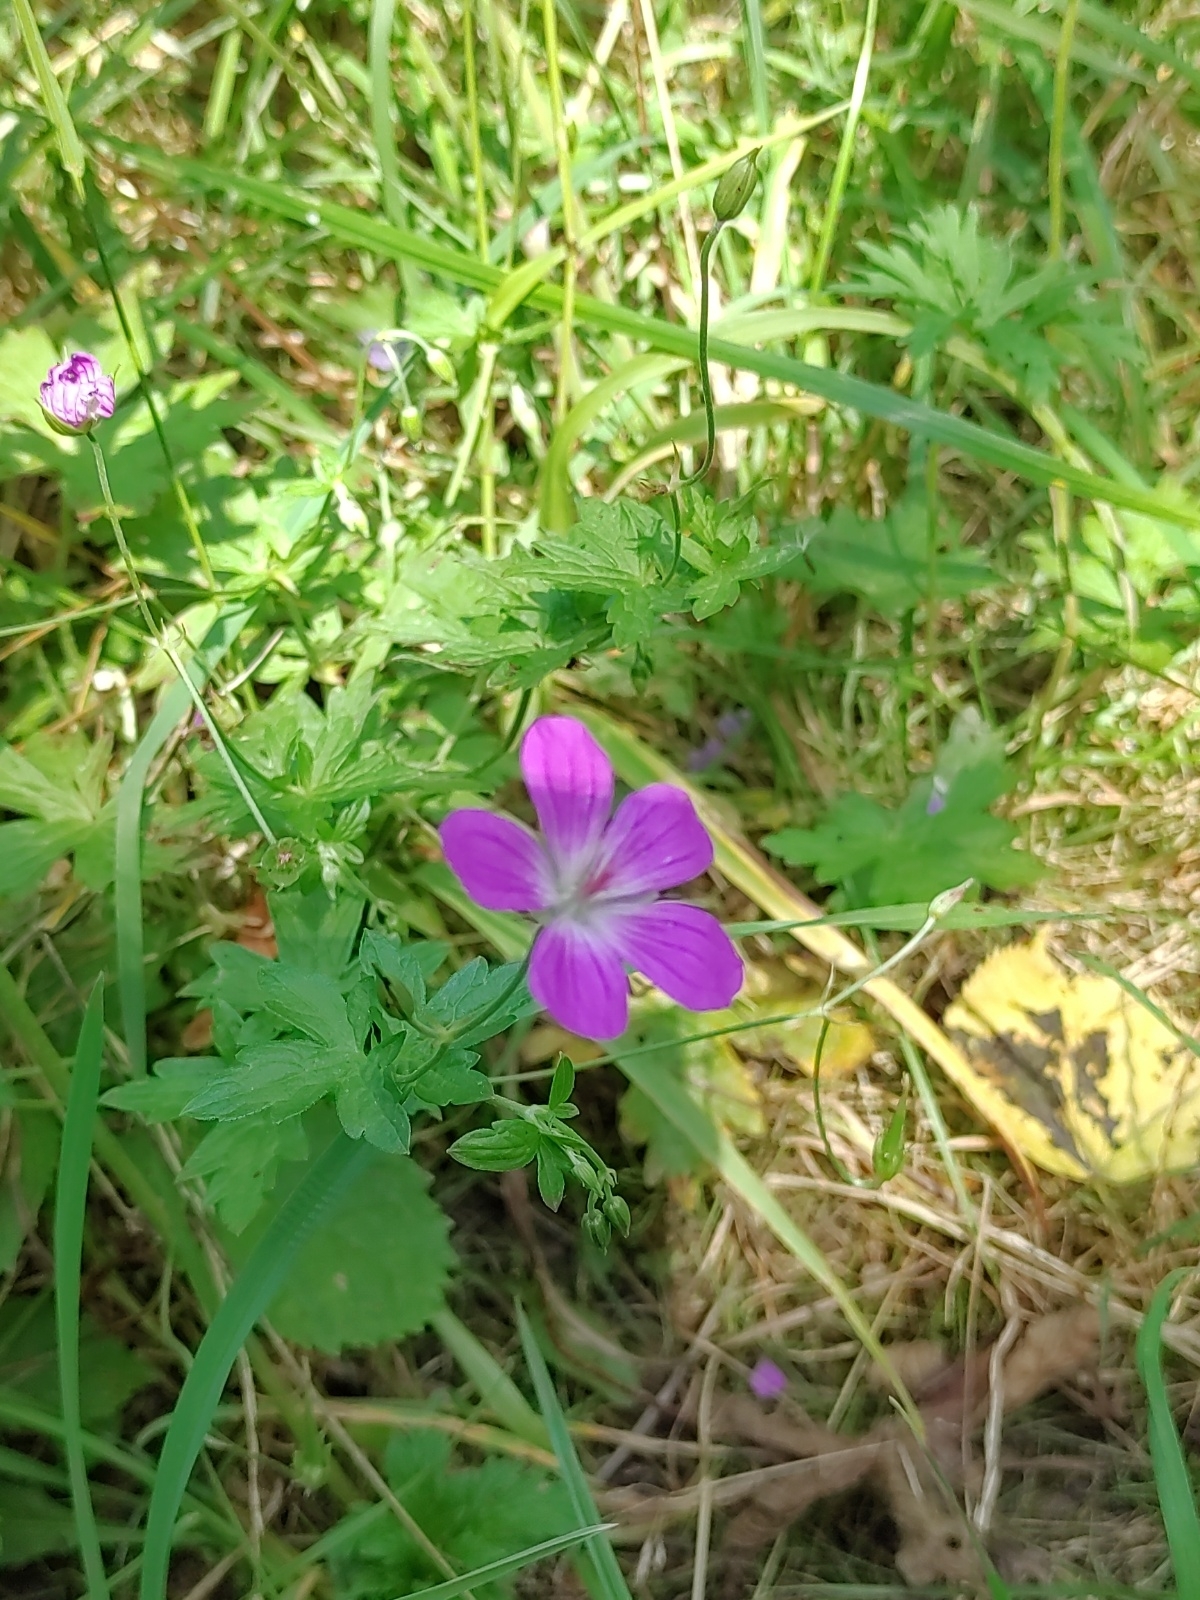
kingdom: Plantae
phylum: Tracheophyta
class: Magnoliopsida
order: Geraniales
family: Geraniaceae
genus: Geranium
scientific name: Geranium palustre
